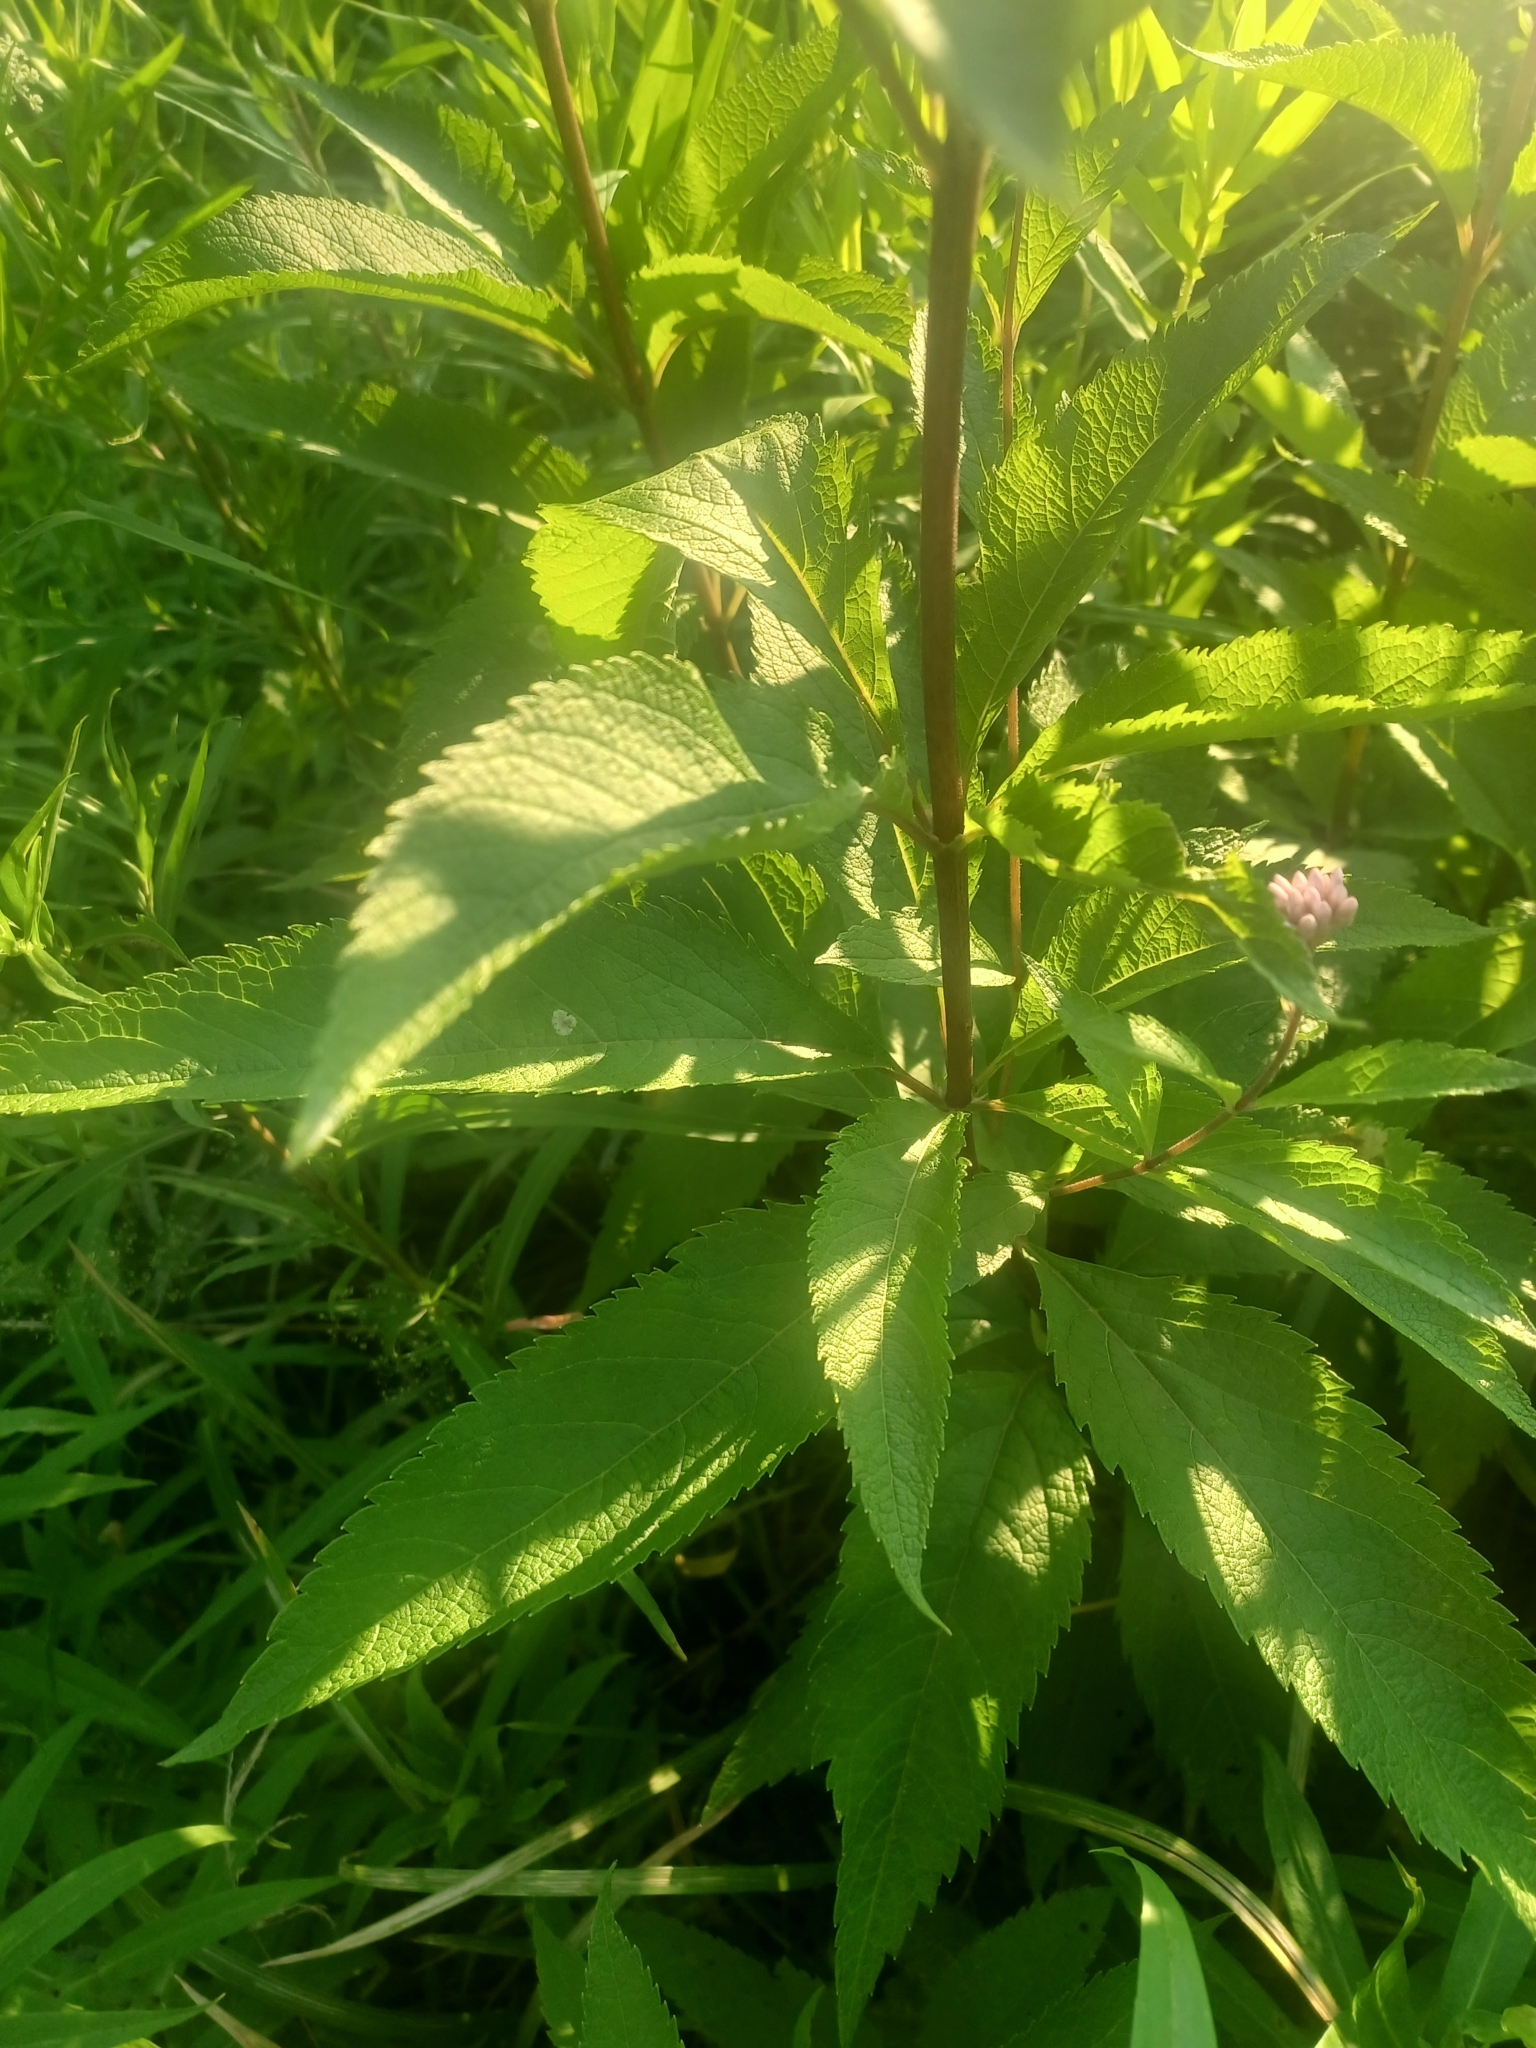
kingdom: Plantae
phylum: Tracheophyta
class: Magnoliopsida
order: Asterales
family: Asteraceae
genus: Eutrochium
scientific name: Eutrochium maculatum
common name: Spotted joe pye weed
